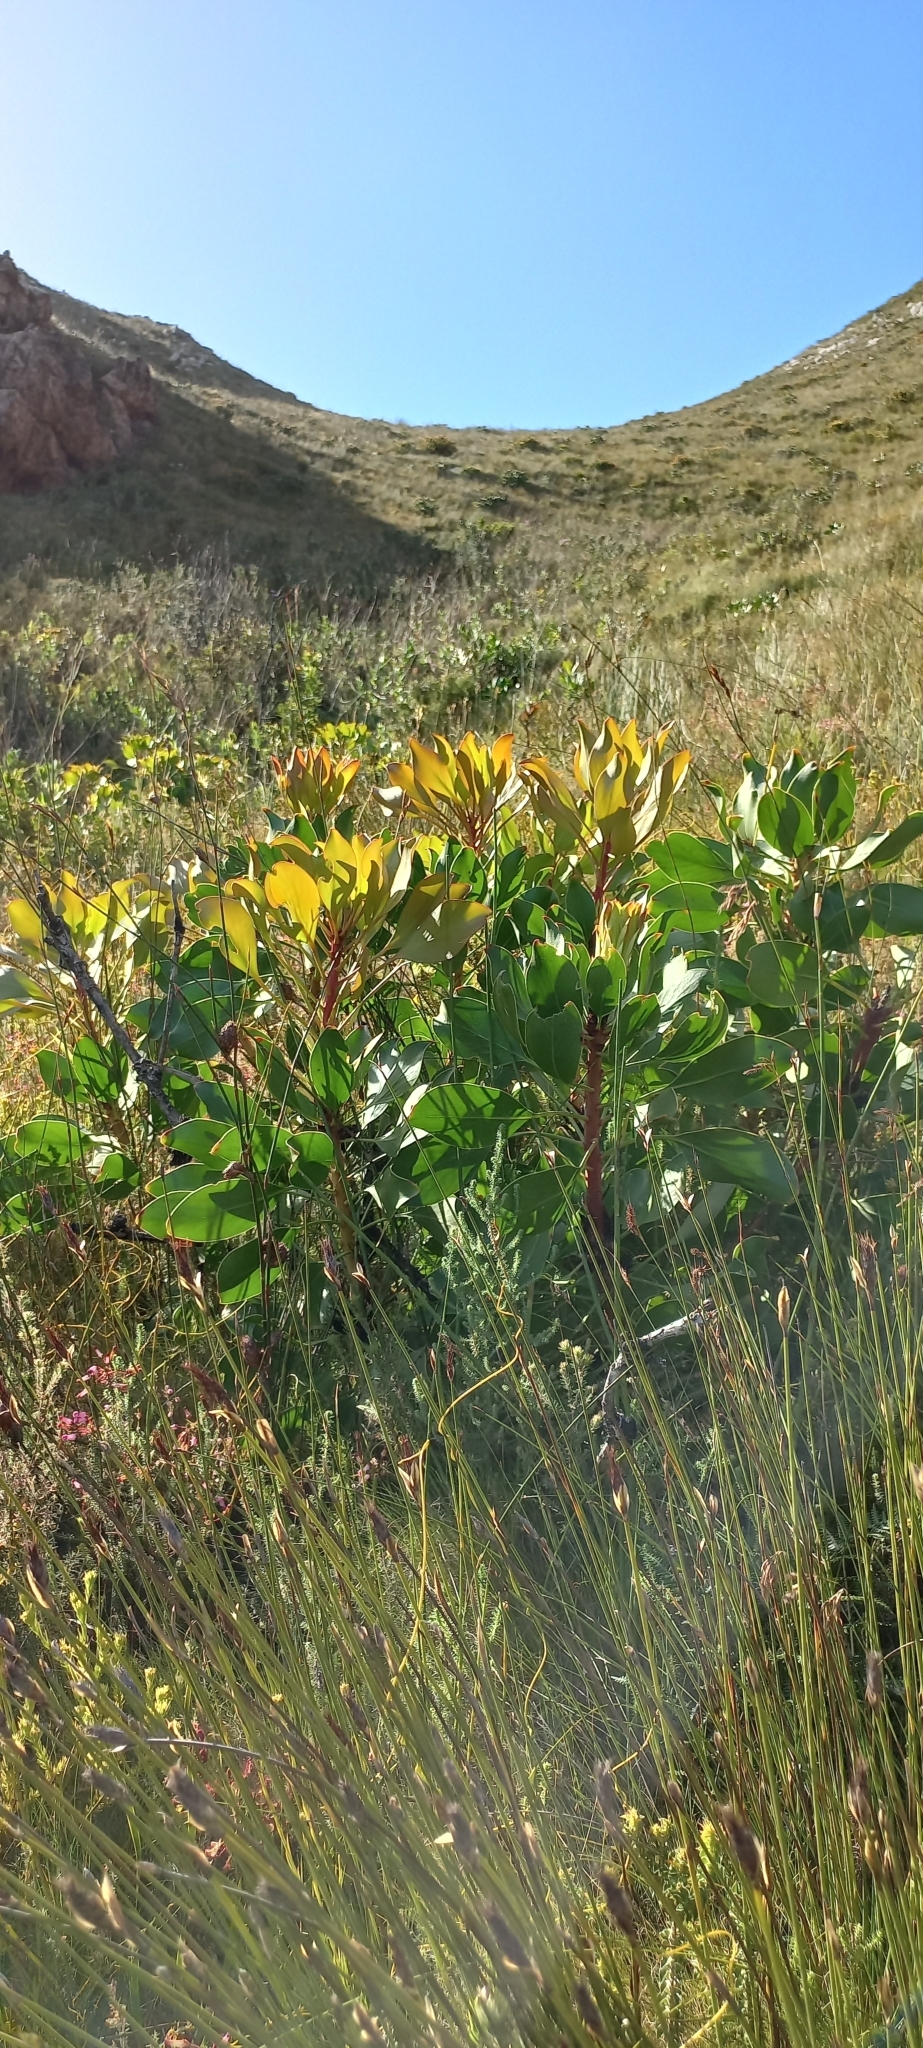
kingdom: Plantae
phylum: Tracheophyta
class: Magnoliopsida
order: Proteales
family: Proteaceae
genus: Protea
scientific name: Protea cynaroides
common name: King protea
